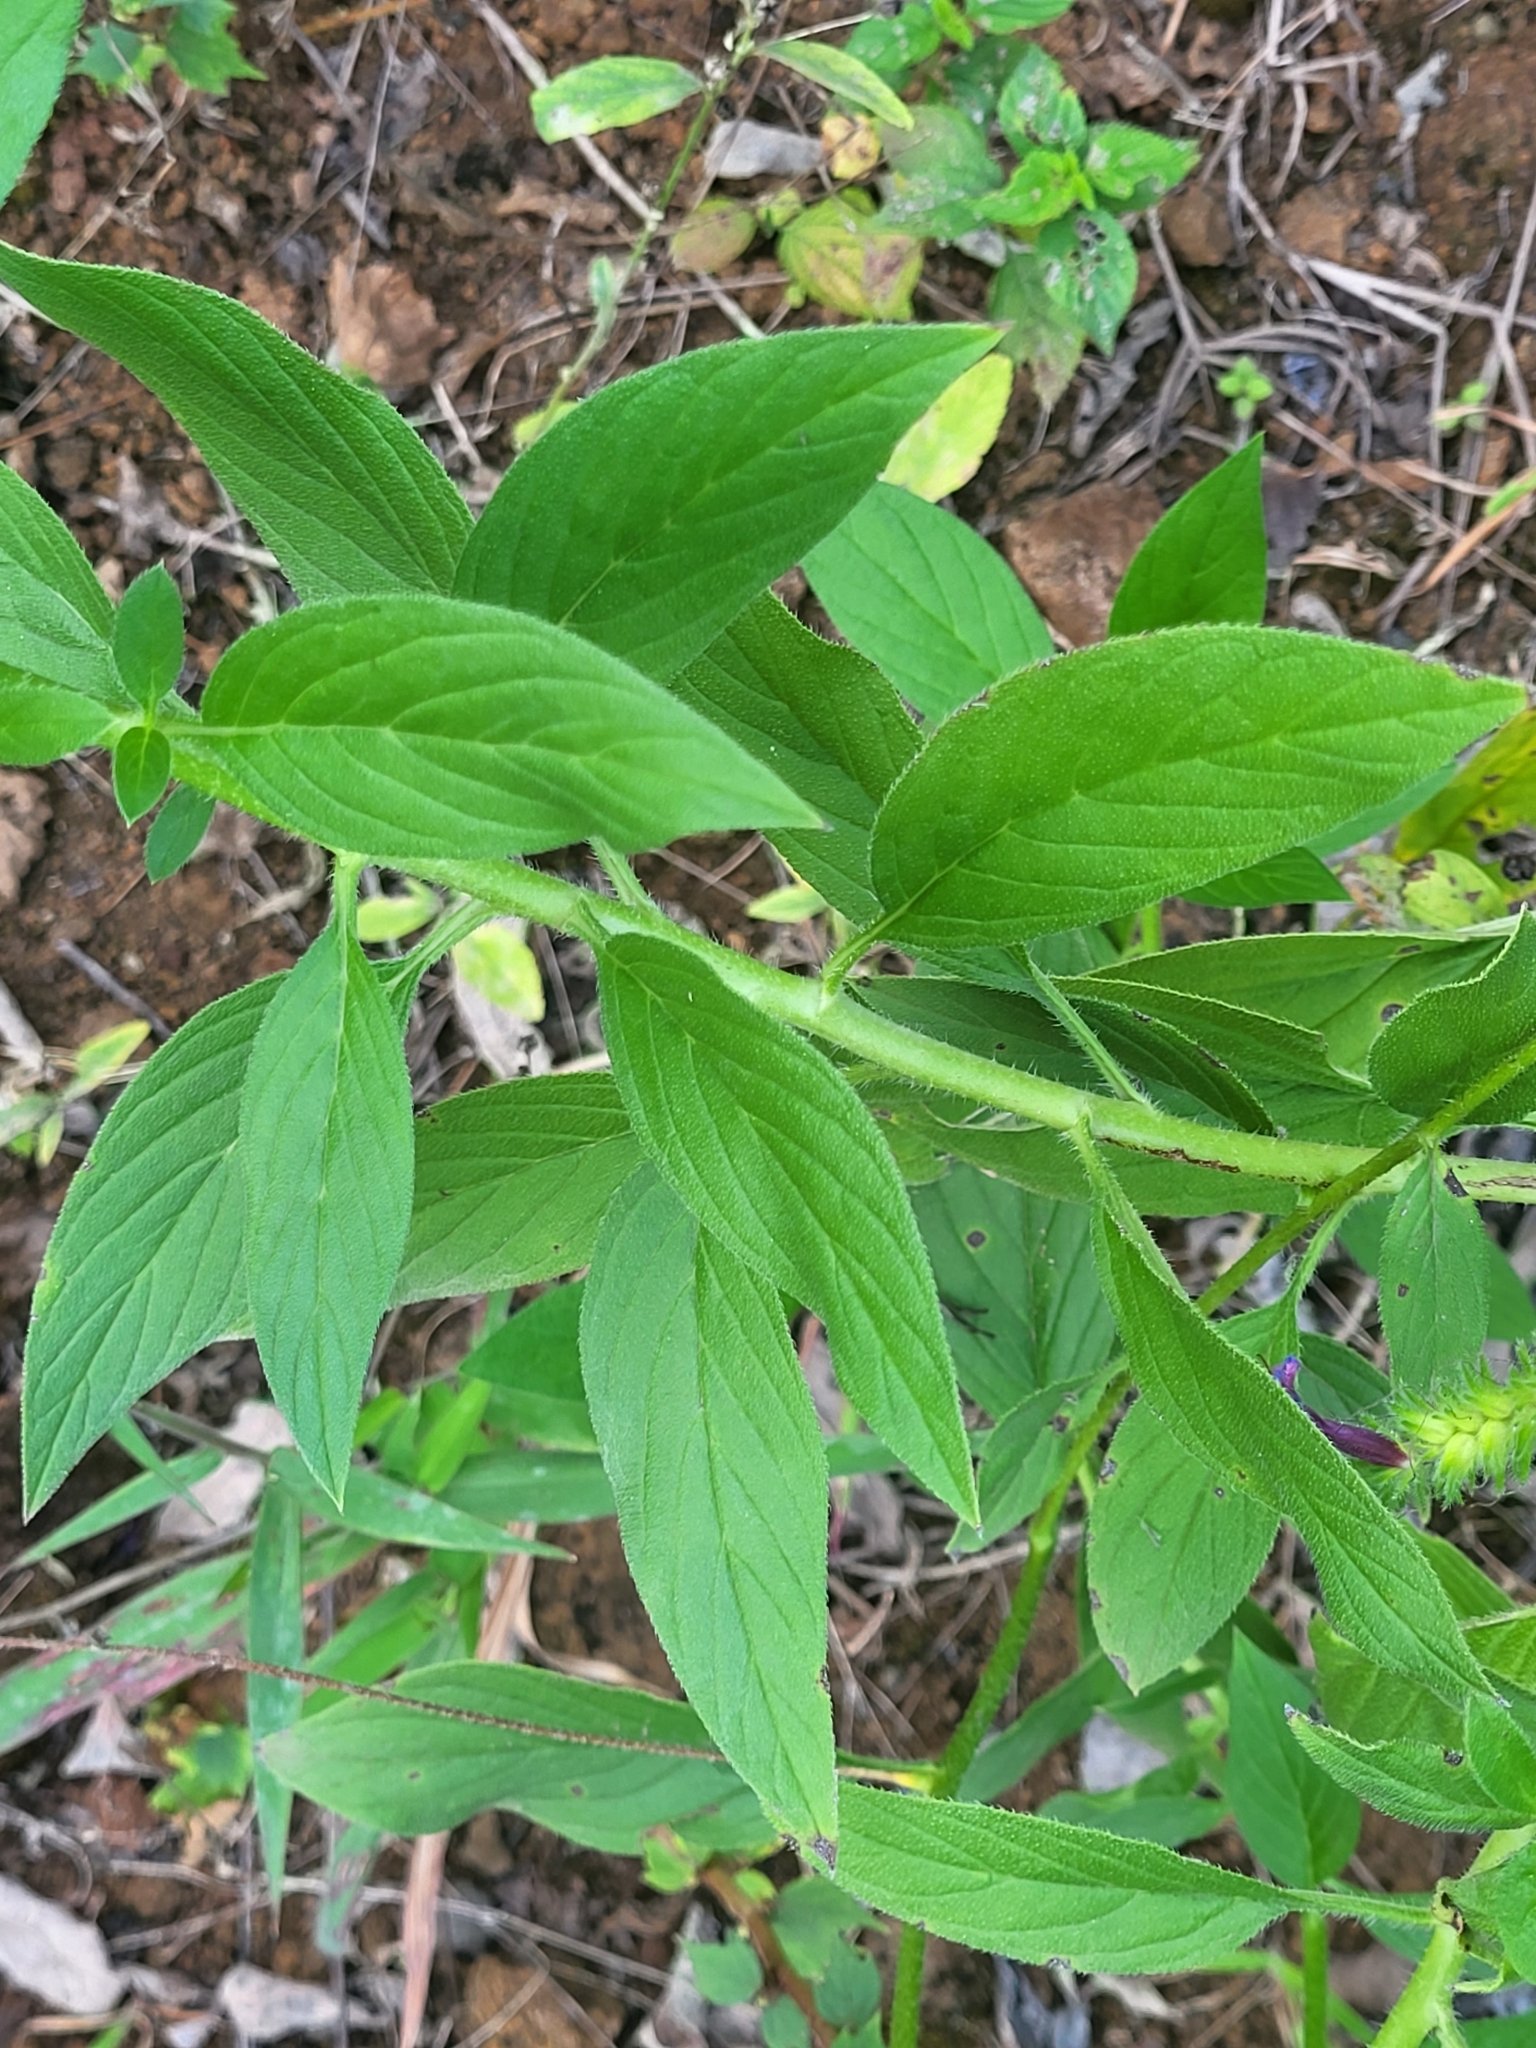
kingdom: Plantae
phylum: Tracheophyta
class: Magnoliopsida
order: Boraginales
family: Boraginaceae
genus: Echium
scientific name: Echium stenosiphon
